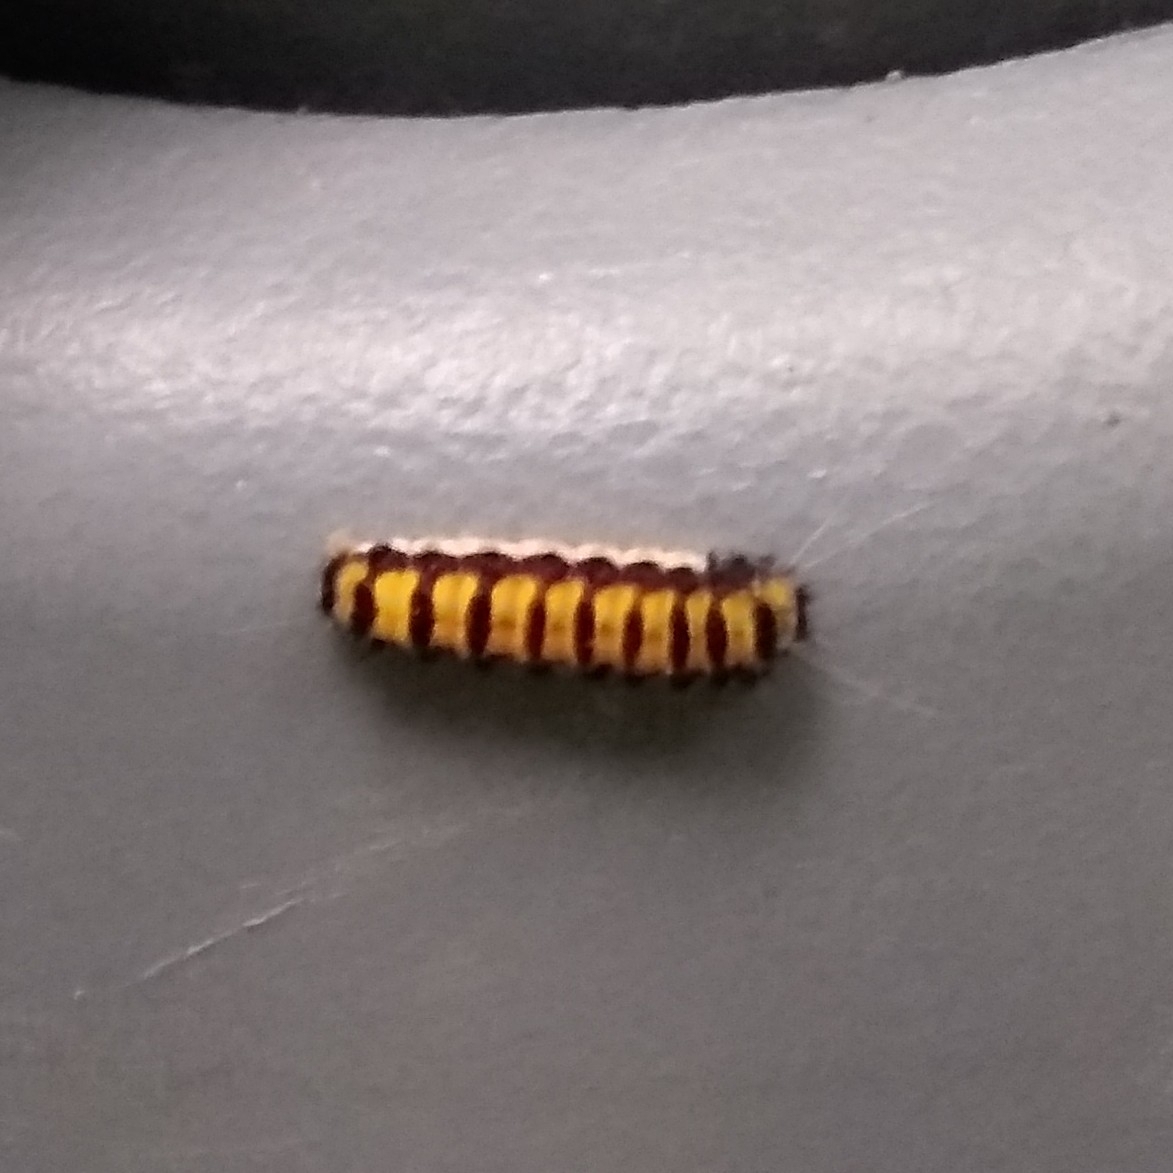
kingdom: Animalia
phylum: Arthropoda
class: Insecta
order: Lepidoptera
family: Zygaenidae
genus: Harrisina
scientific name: Harrisina americana
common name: Grapeleaf skeletonizer moth
